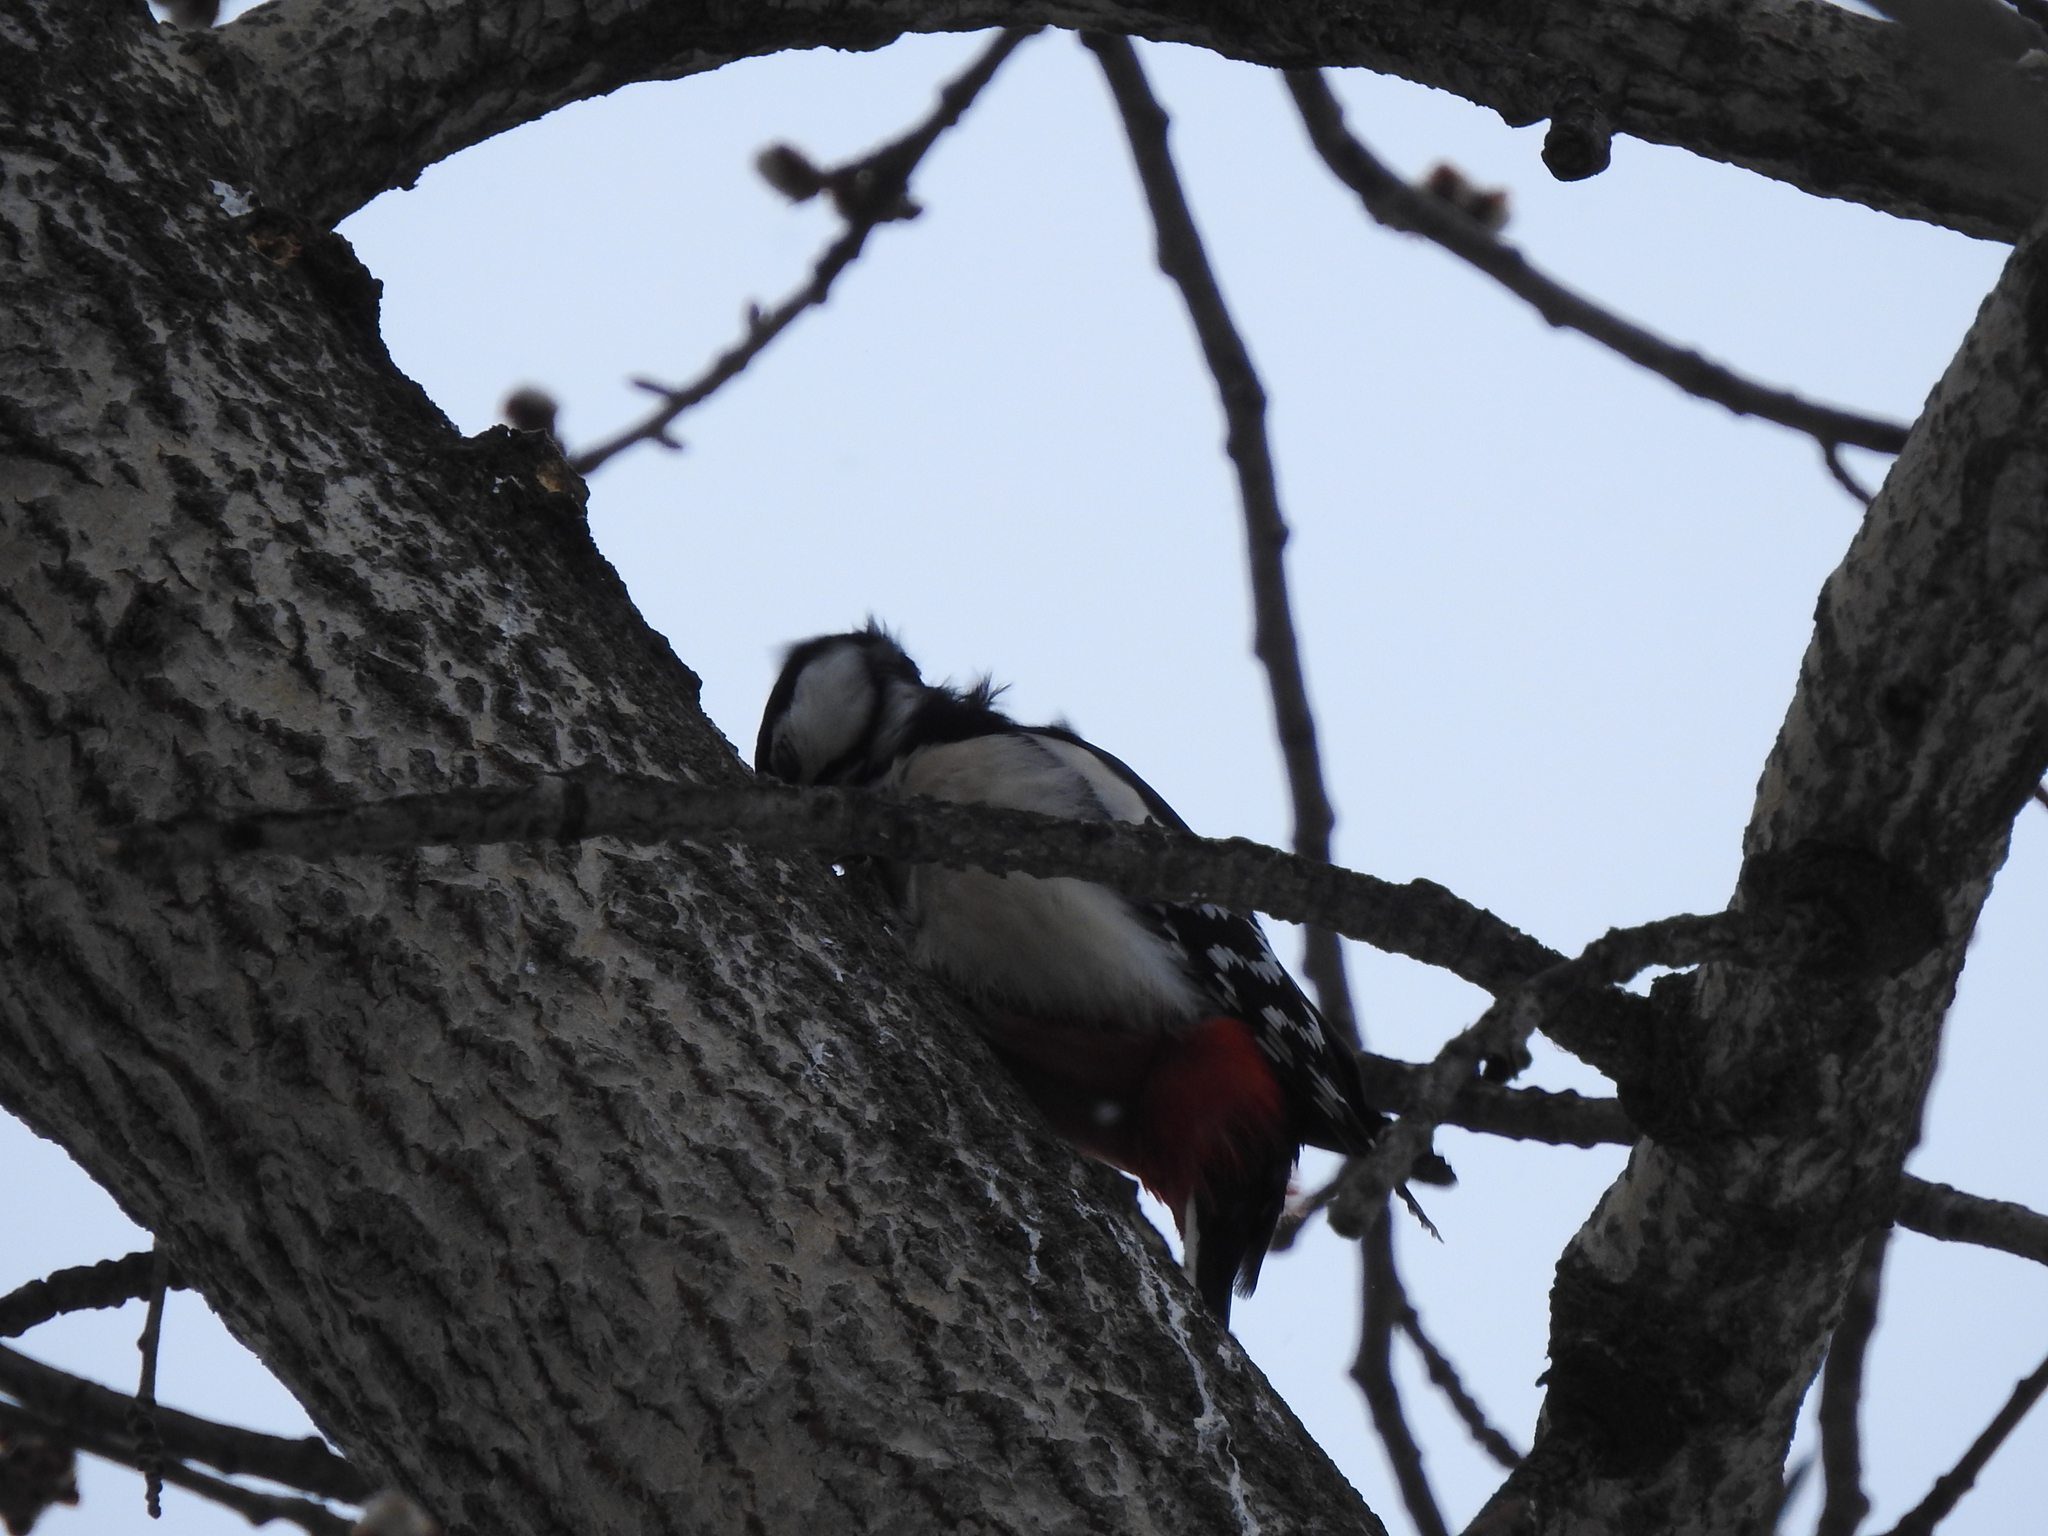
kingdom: Animalia
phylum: Chordata
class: Aves
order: Piciformes
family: Picidae
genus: Dendrocopos
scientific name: Dendrocopos major
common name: Great spotted woodpecker
